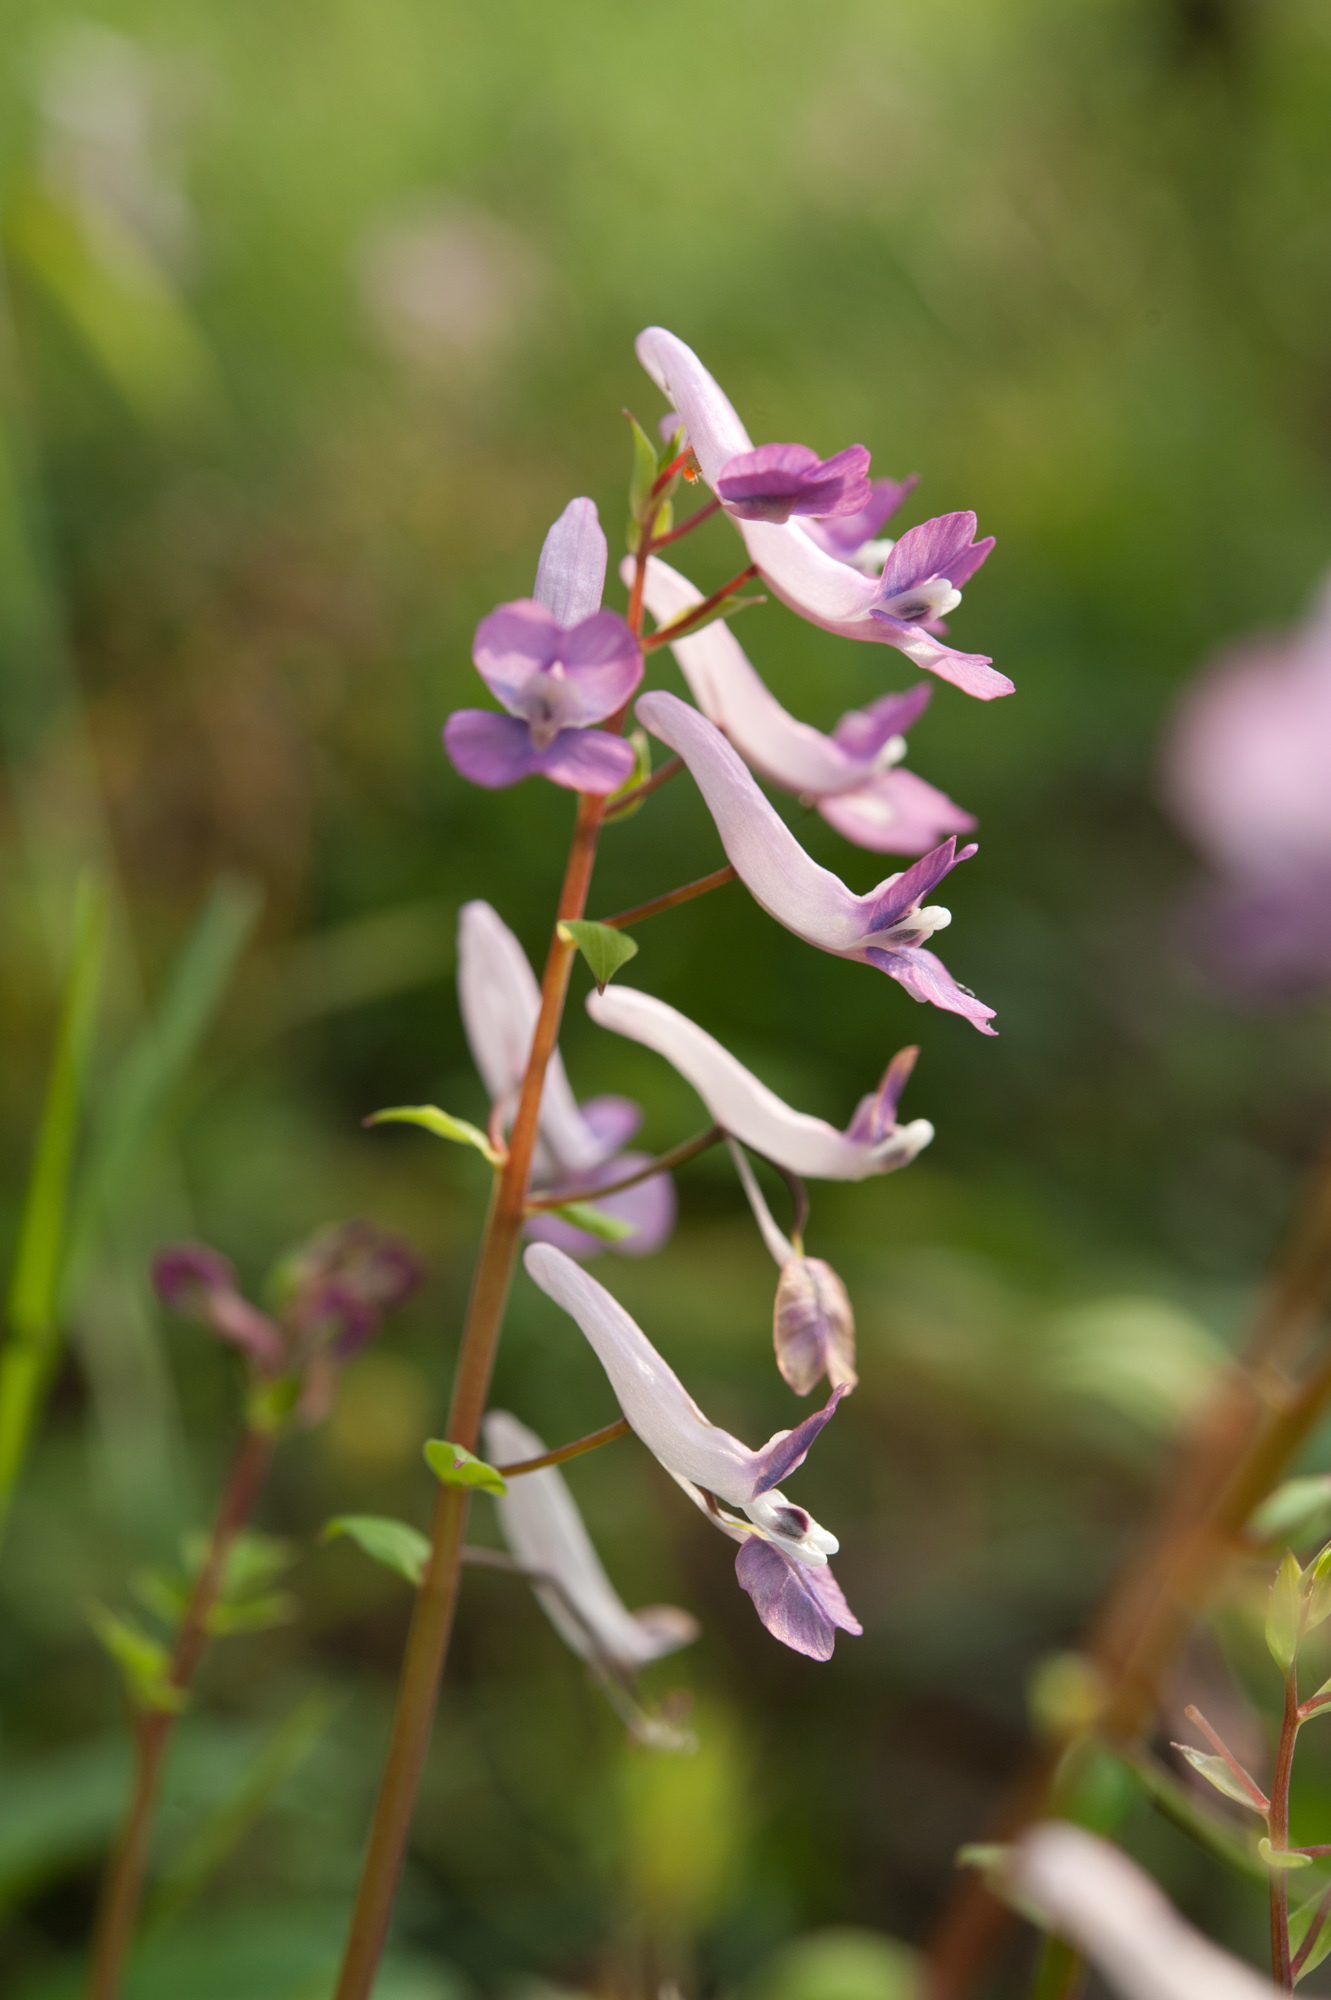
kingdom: Plantae
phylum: Tracheophyta
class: Magnoliopsida
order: Ranunculales
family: Papaveraceae
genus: Corydalis
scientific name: Corydalis decumbens
